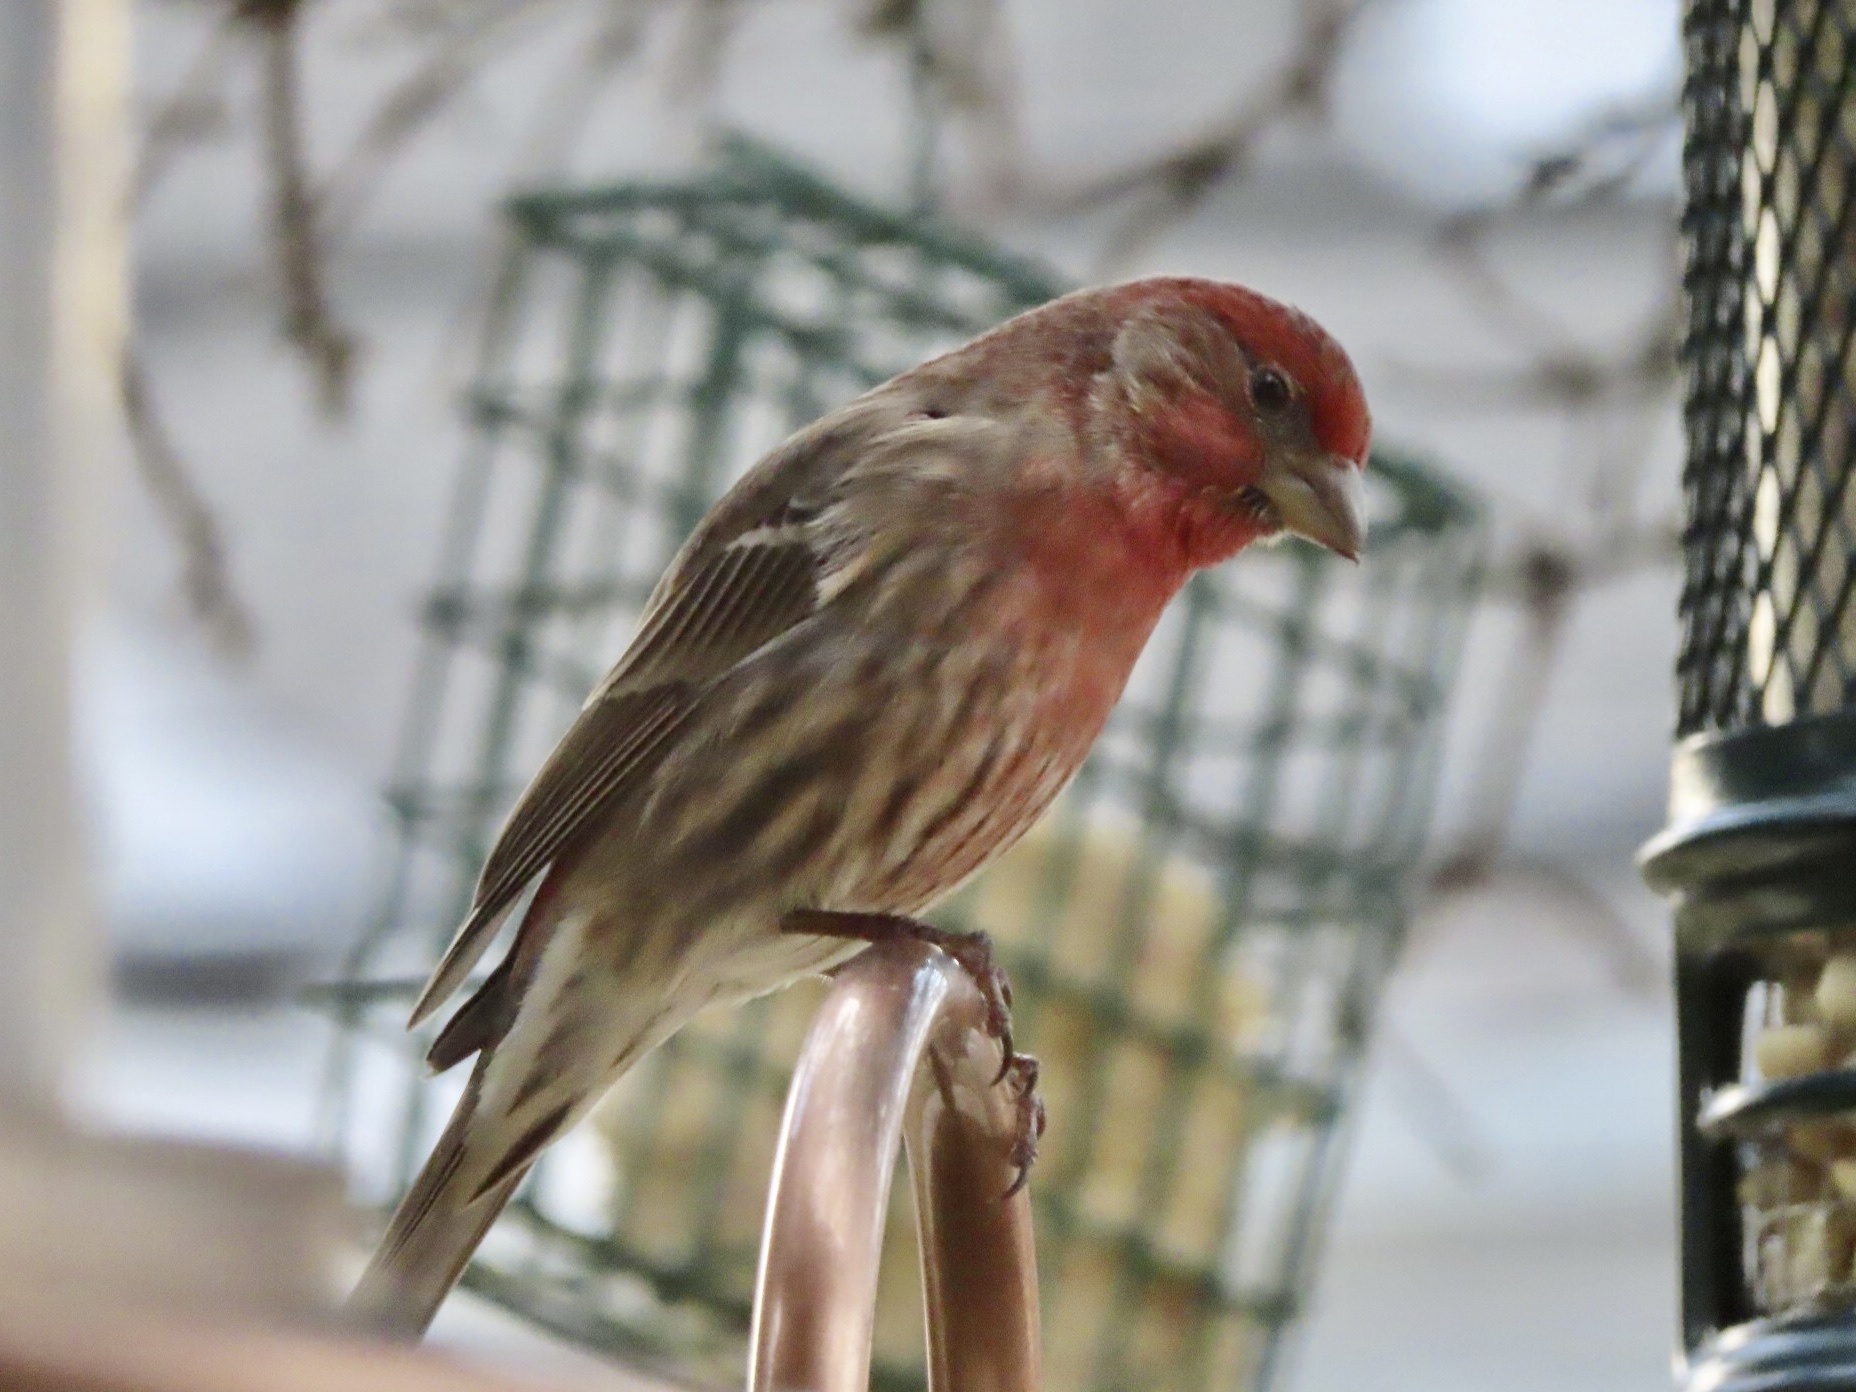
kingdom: Animalia
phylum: Chordata
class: Aves
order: Passeriformes
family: Fringillidae
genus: Haemorhous
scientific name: Haemorhous mexicanus
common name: House finch
